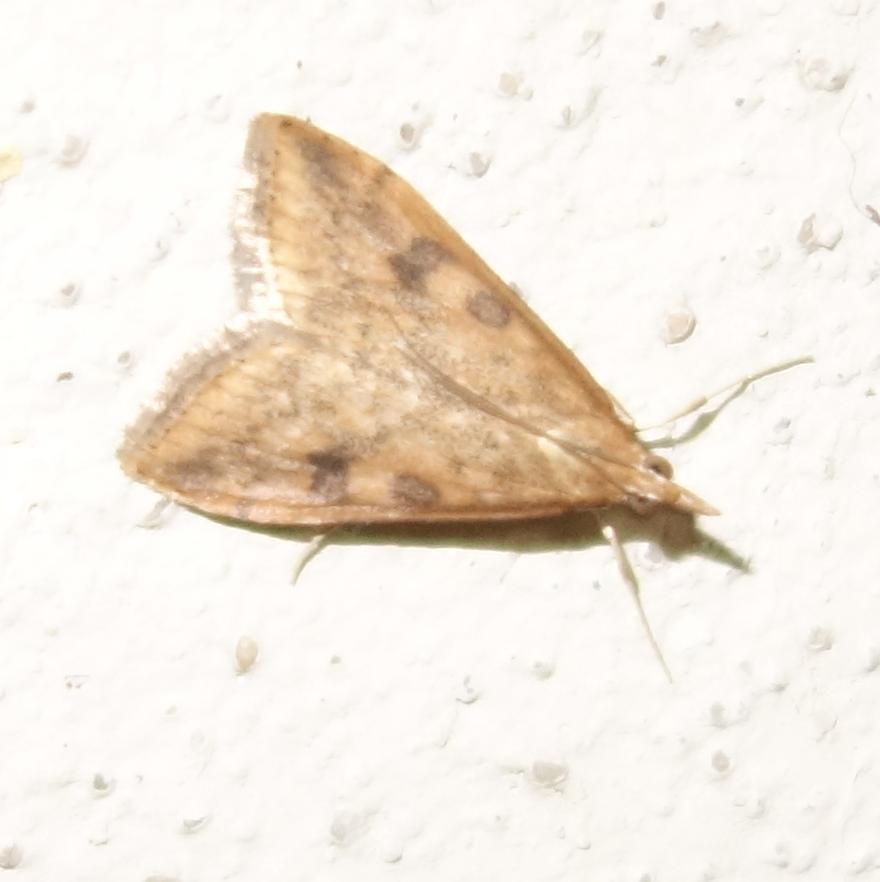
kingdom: Animalia
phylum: Arthropoda
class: Insecta
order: Lepidoptera
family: Crambidae
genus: Udea
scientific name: Udea ferrugalis
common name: Rusty dot
